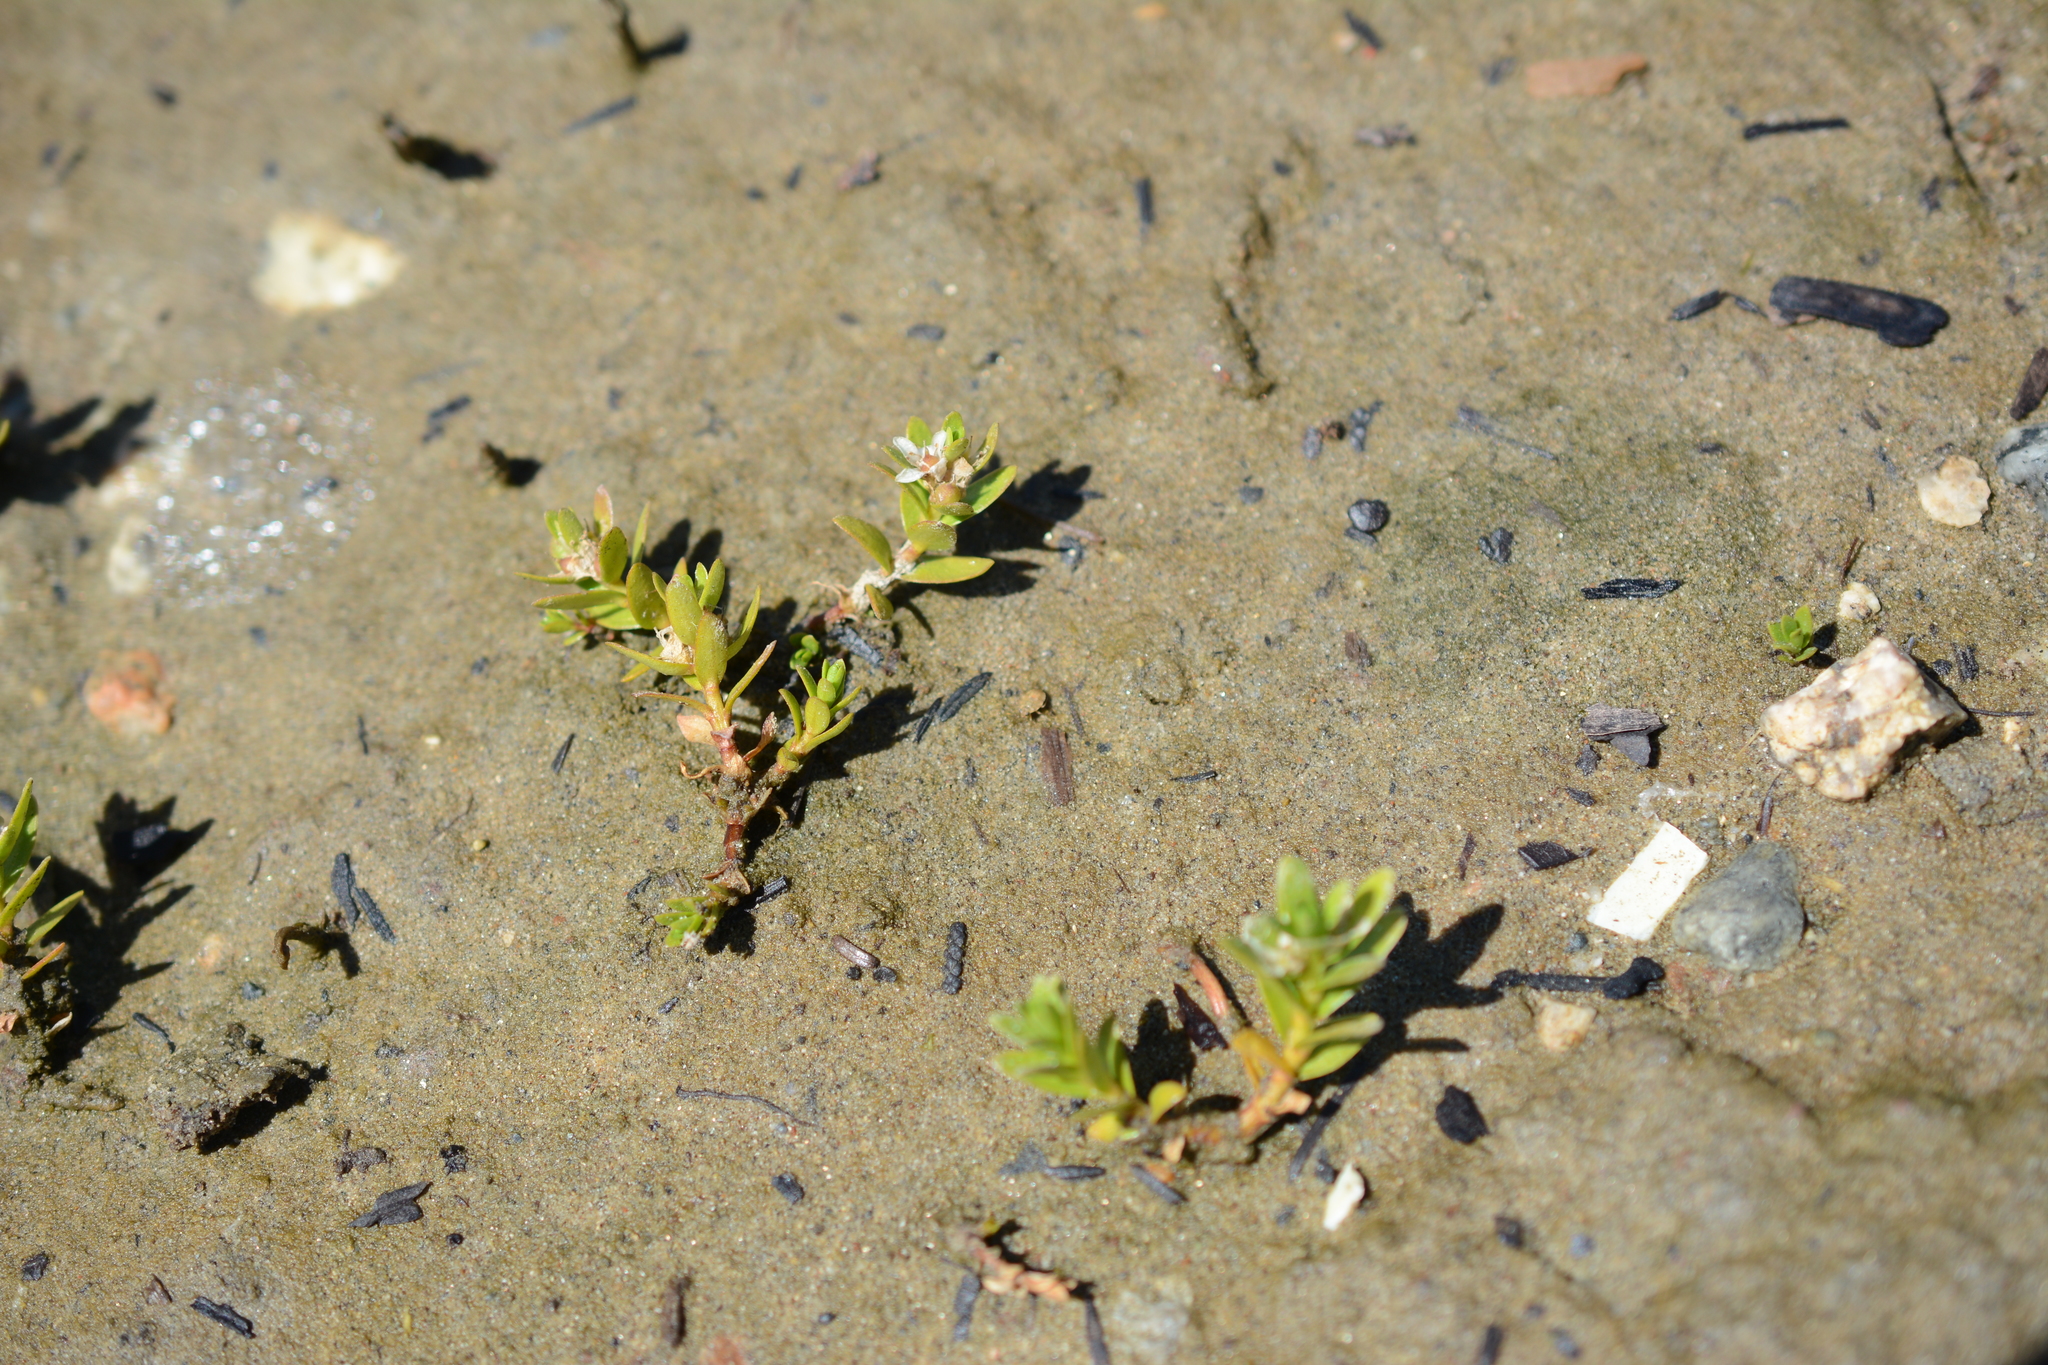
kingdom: Plantae
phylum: Tracheophyta
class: Magnoliopsida
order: Ericales
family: Primulaceae
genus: Lysimachia
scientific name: Lysimachia maritima
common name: Sea milkwort
